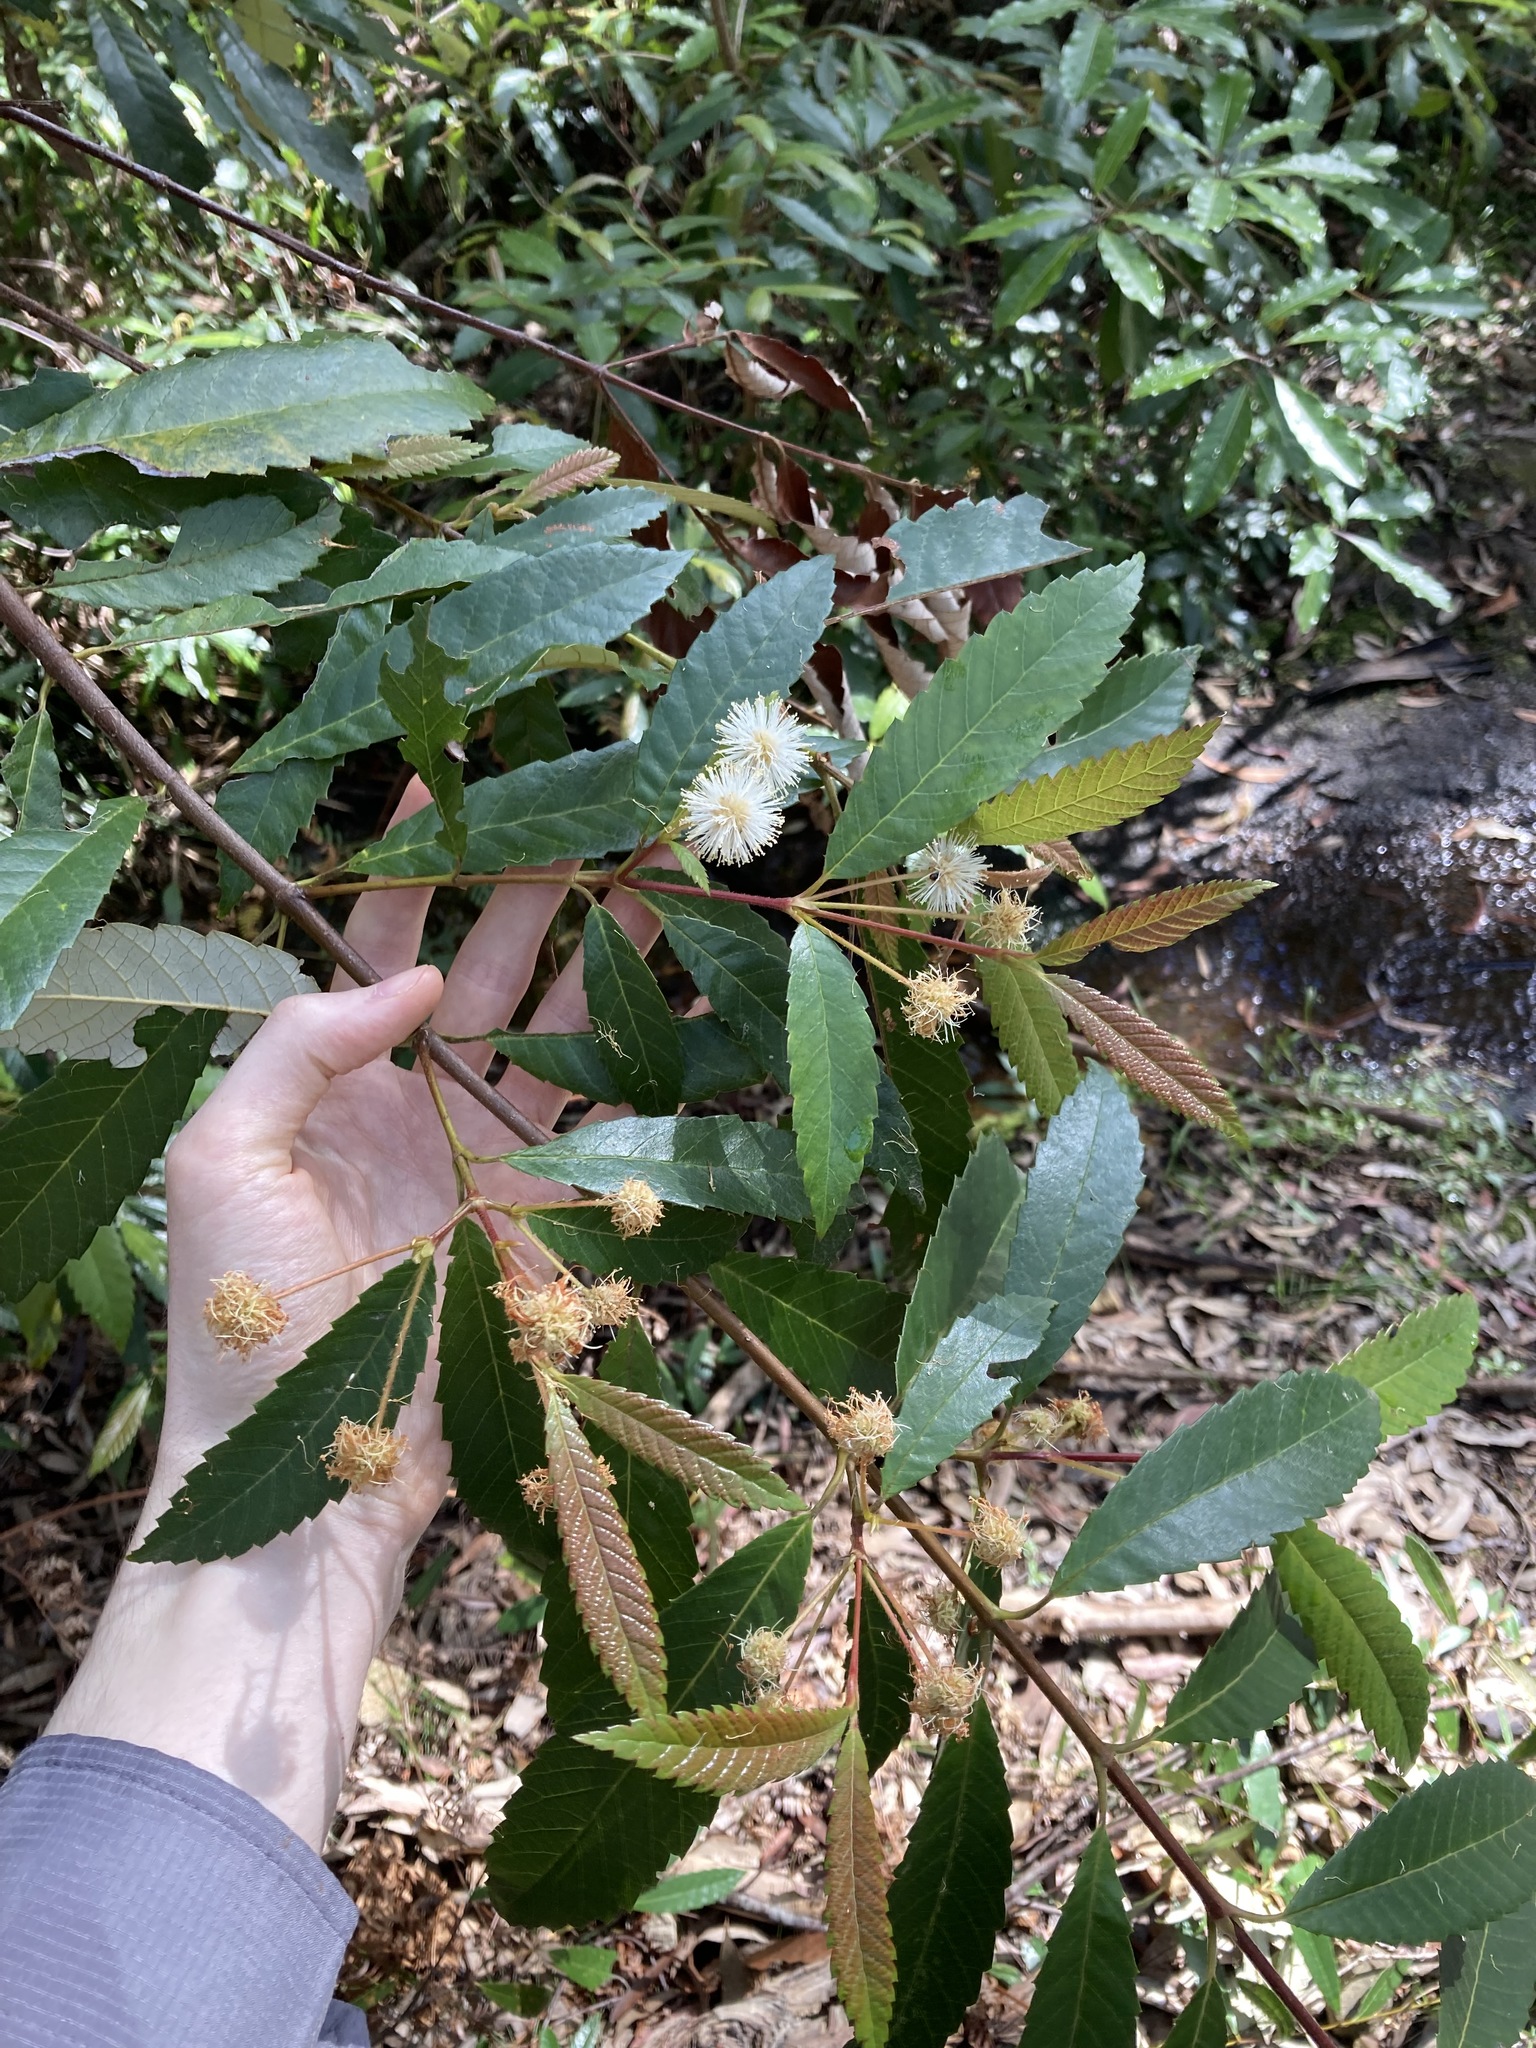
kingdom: Plantae
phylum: Tracheophyta
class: Magnoliopsida
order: Oxalidales
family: Cunoniaceae
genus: Callicoma
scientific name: Callicoma serratifolia
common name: Black wattle
